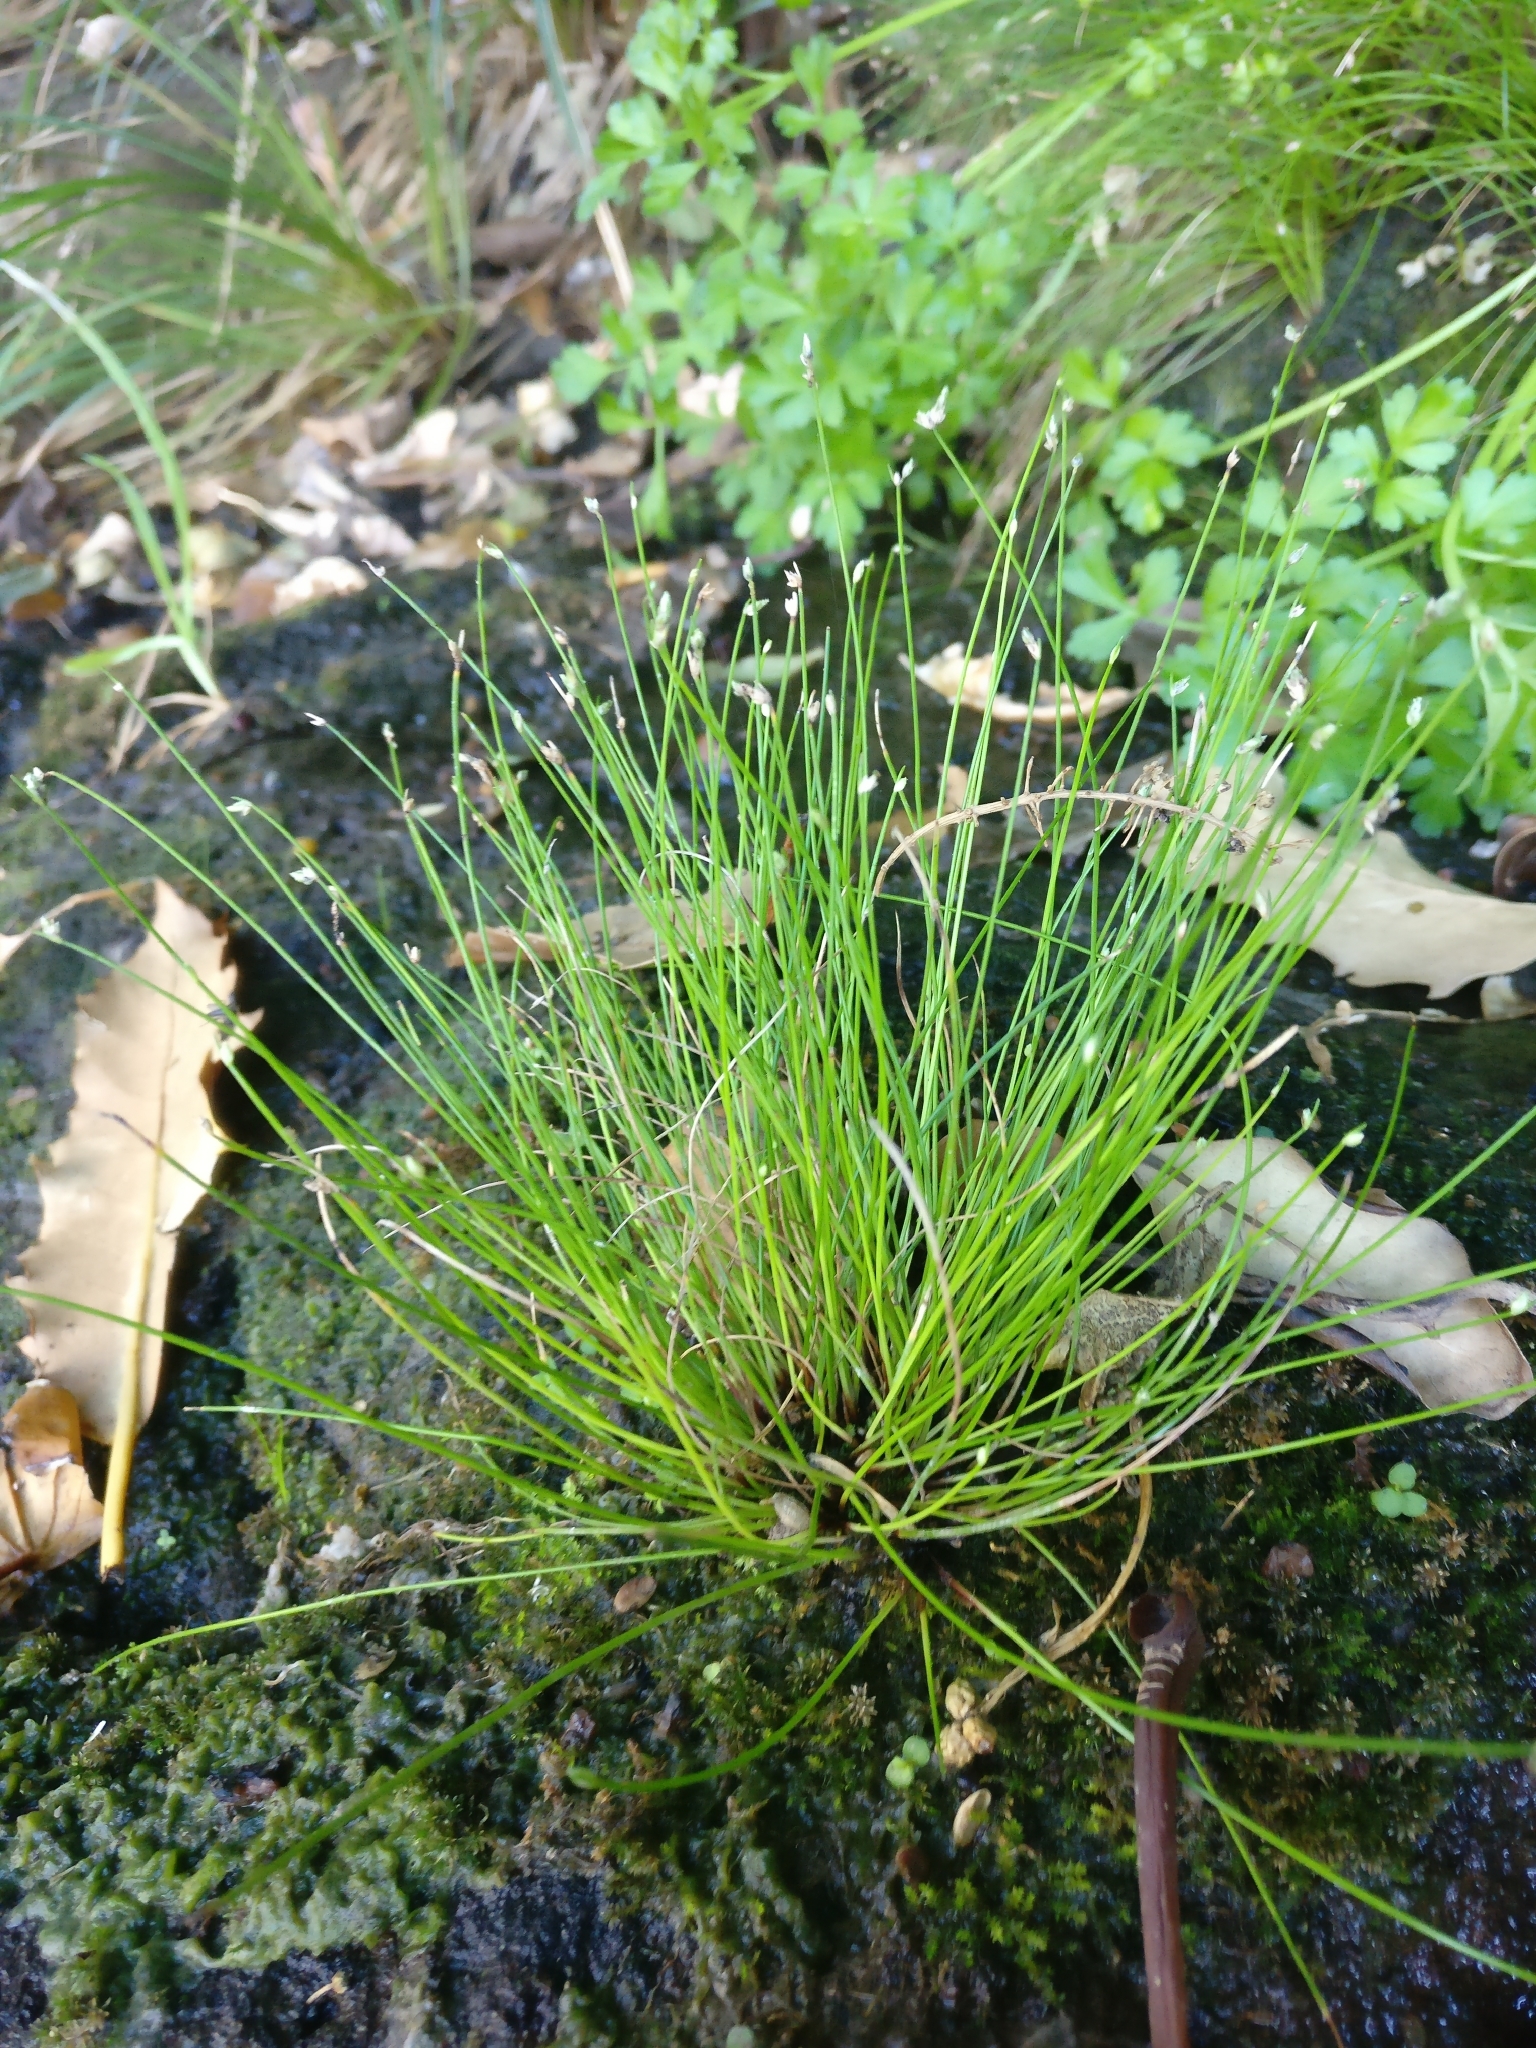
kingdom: Plantae
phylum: Tracheophyta
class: Liliopsida
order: Poales
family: Cyperaceae
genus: Isolepis
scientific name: Isolepis cernua
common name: Slender club-rush
